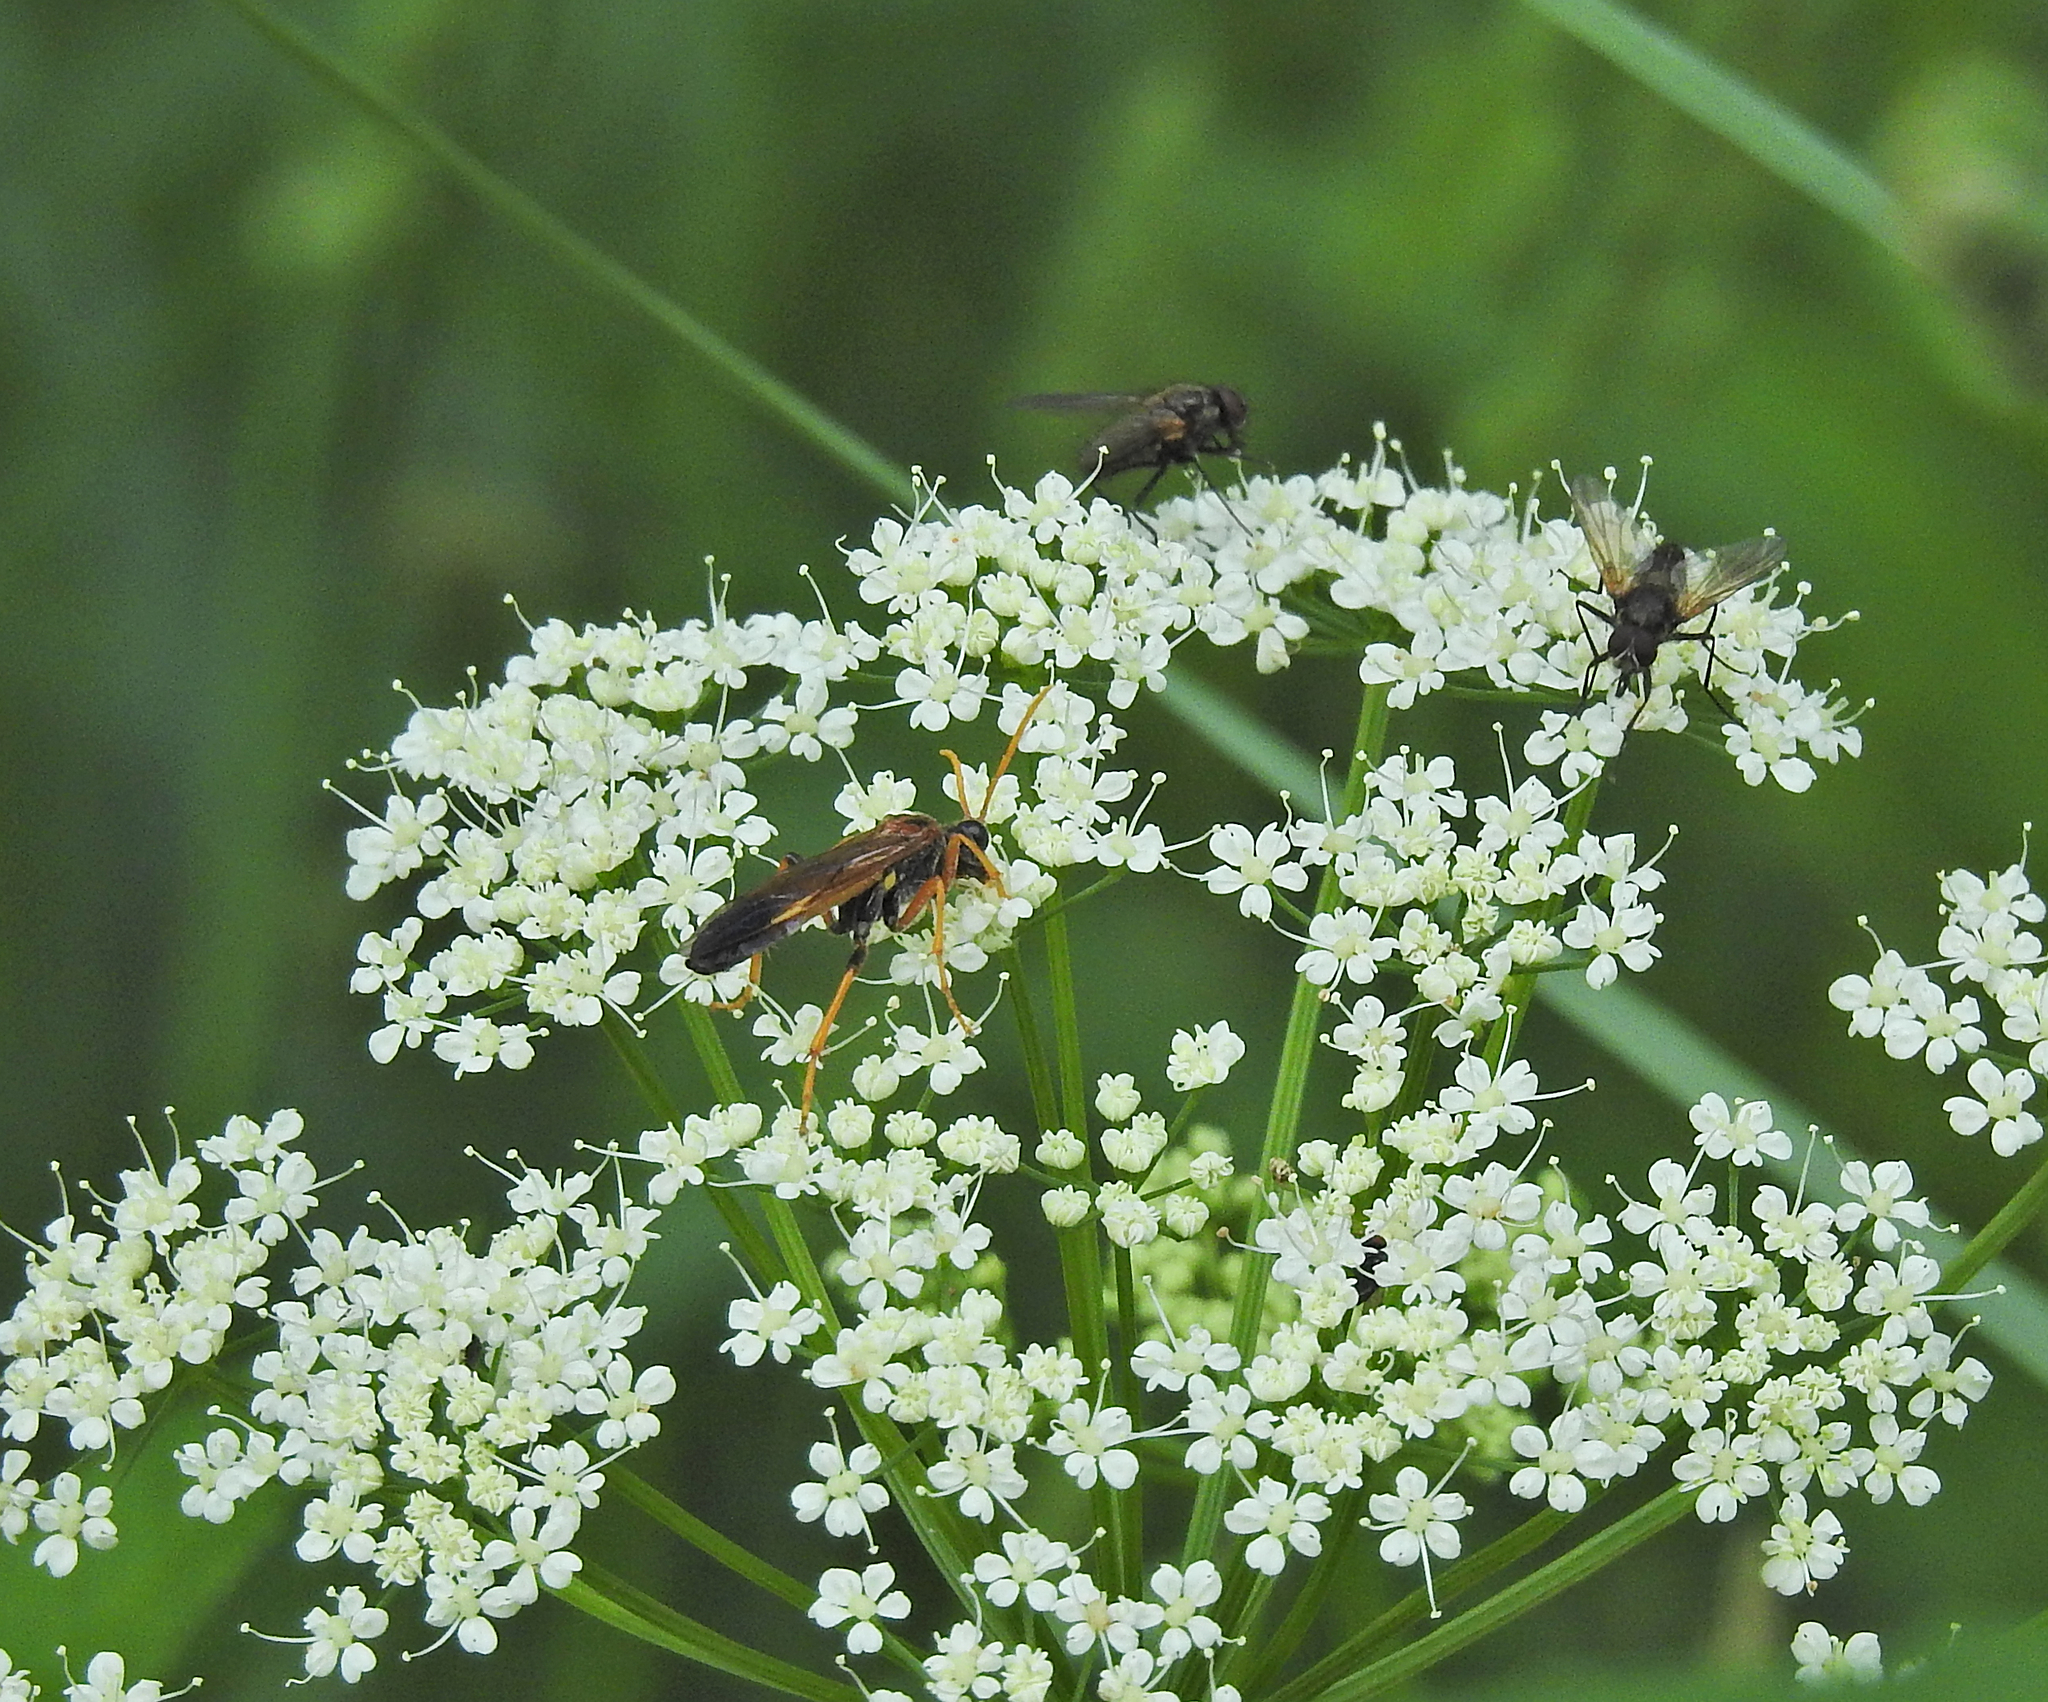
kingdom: Animalia
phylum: Arthropoda
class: Insecta
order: Hymenoptera
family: Tenthredinidae
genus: Tenthredo
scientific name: Tenthredo campestris
